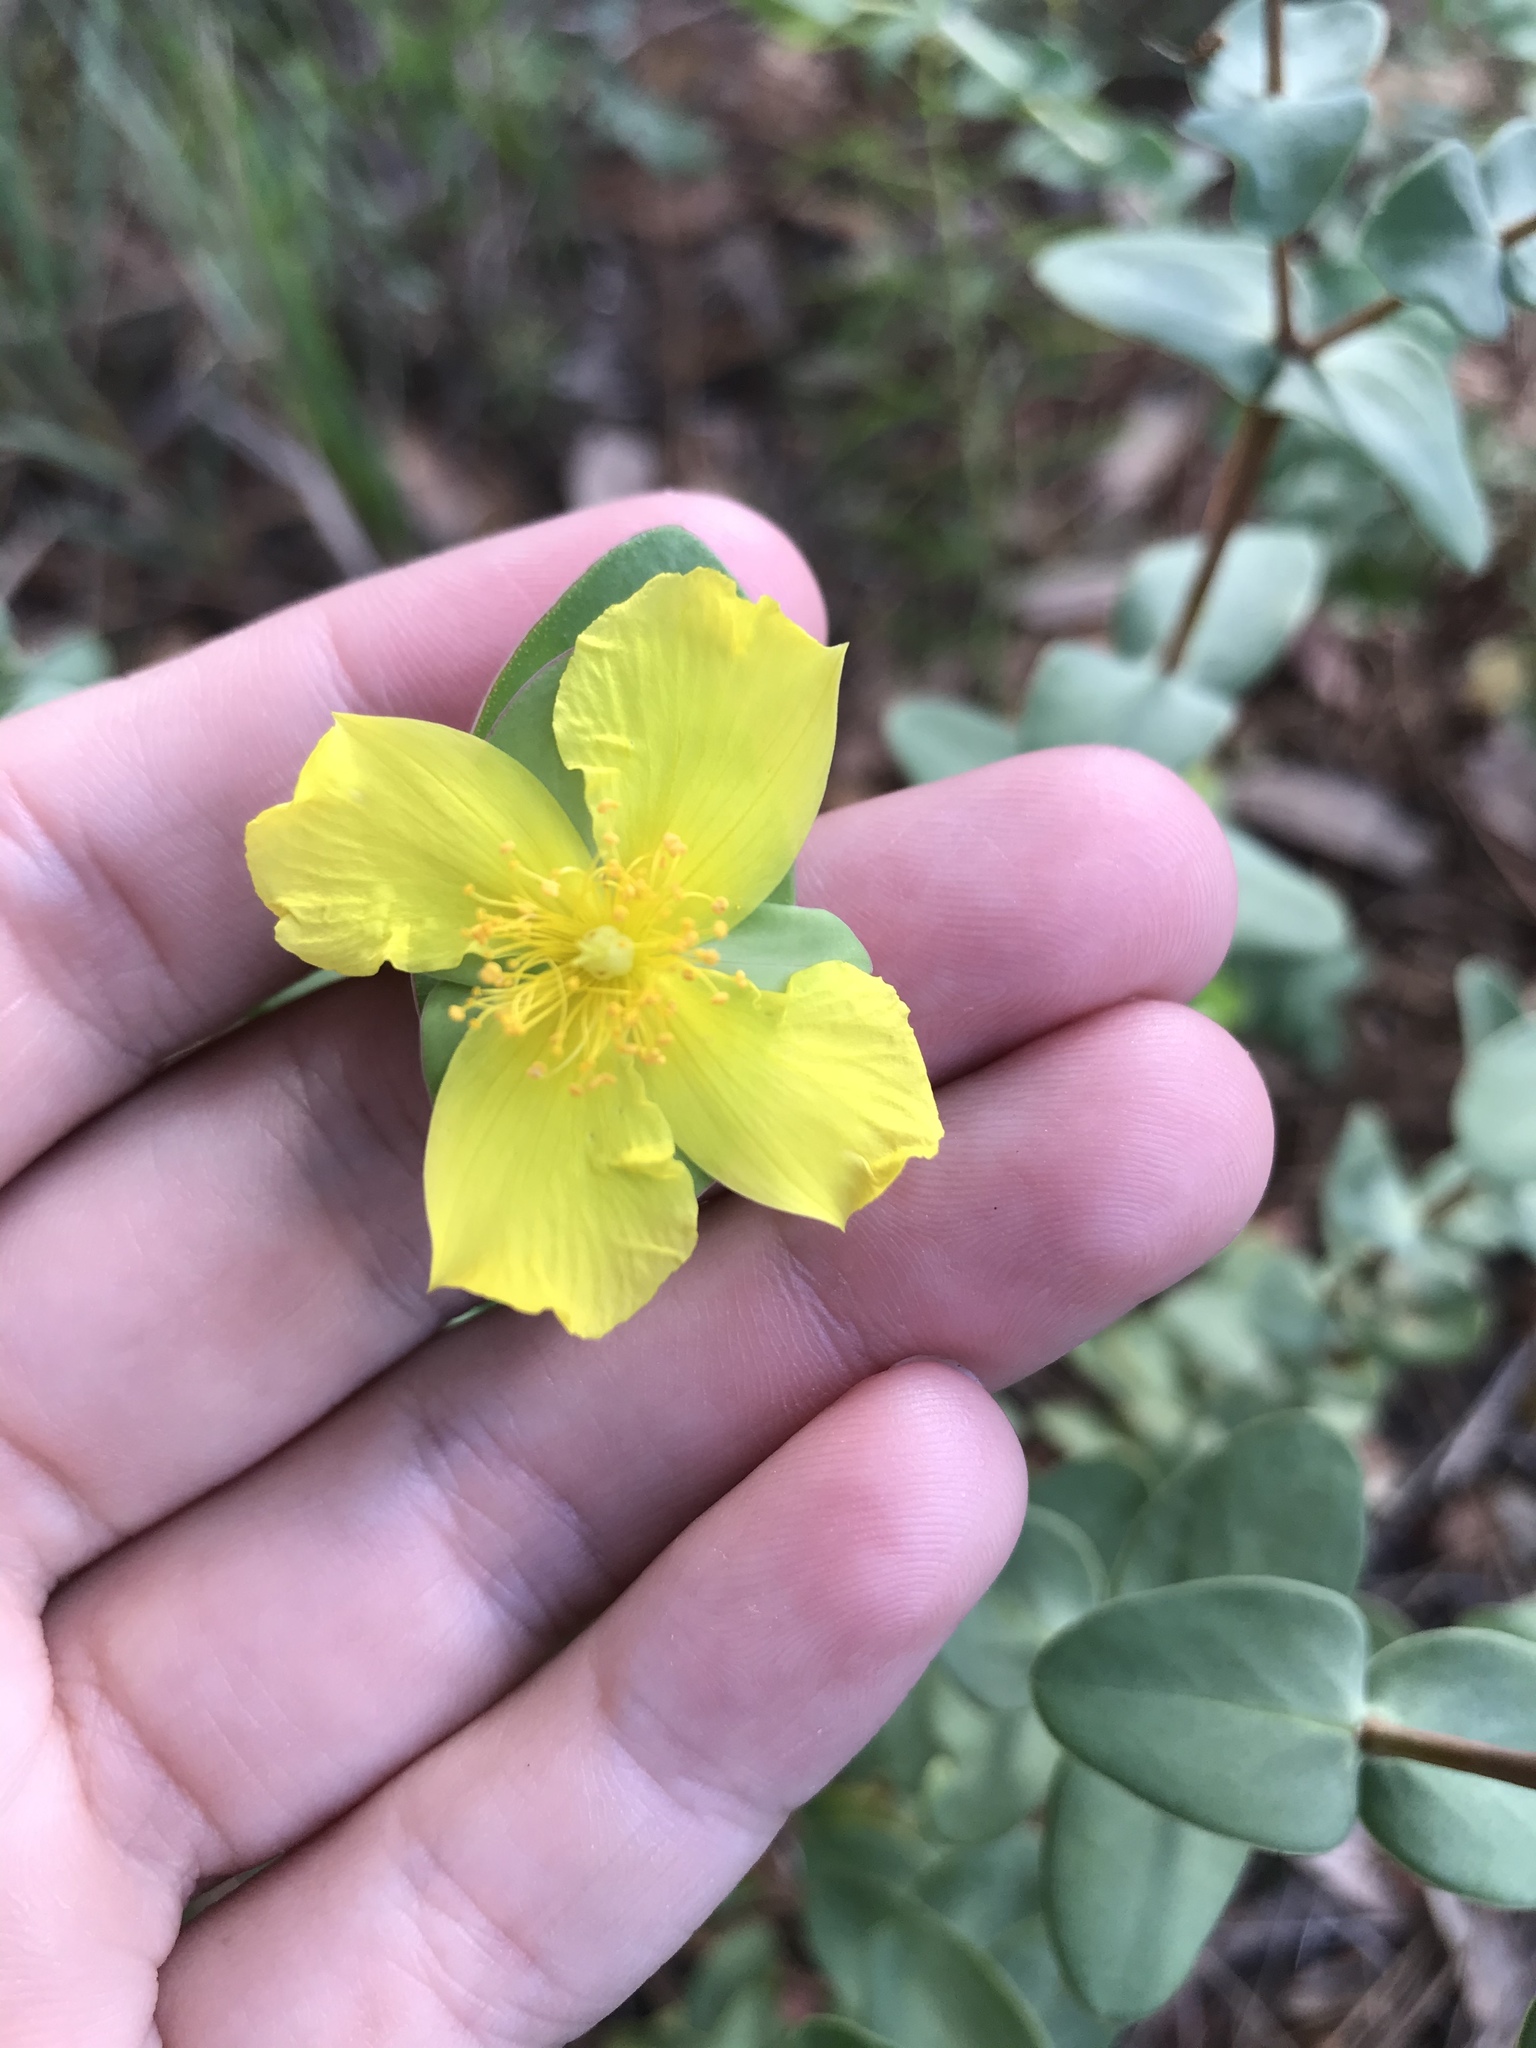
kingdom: Plantae
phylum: Tracheophyta
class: Magnoliopsida
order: Malpighiales
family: Hypericaceae
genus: Hypericum
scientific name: Hypericum tetrapetalum
